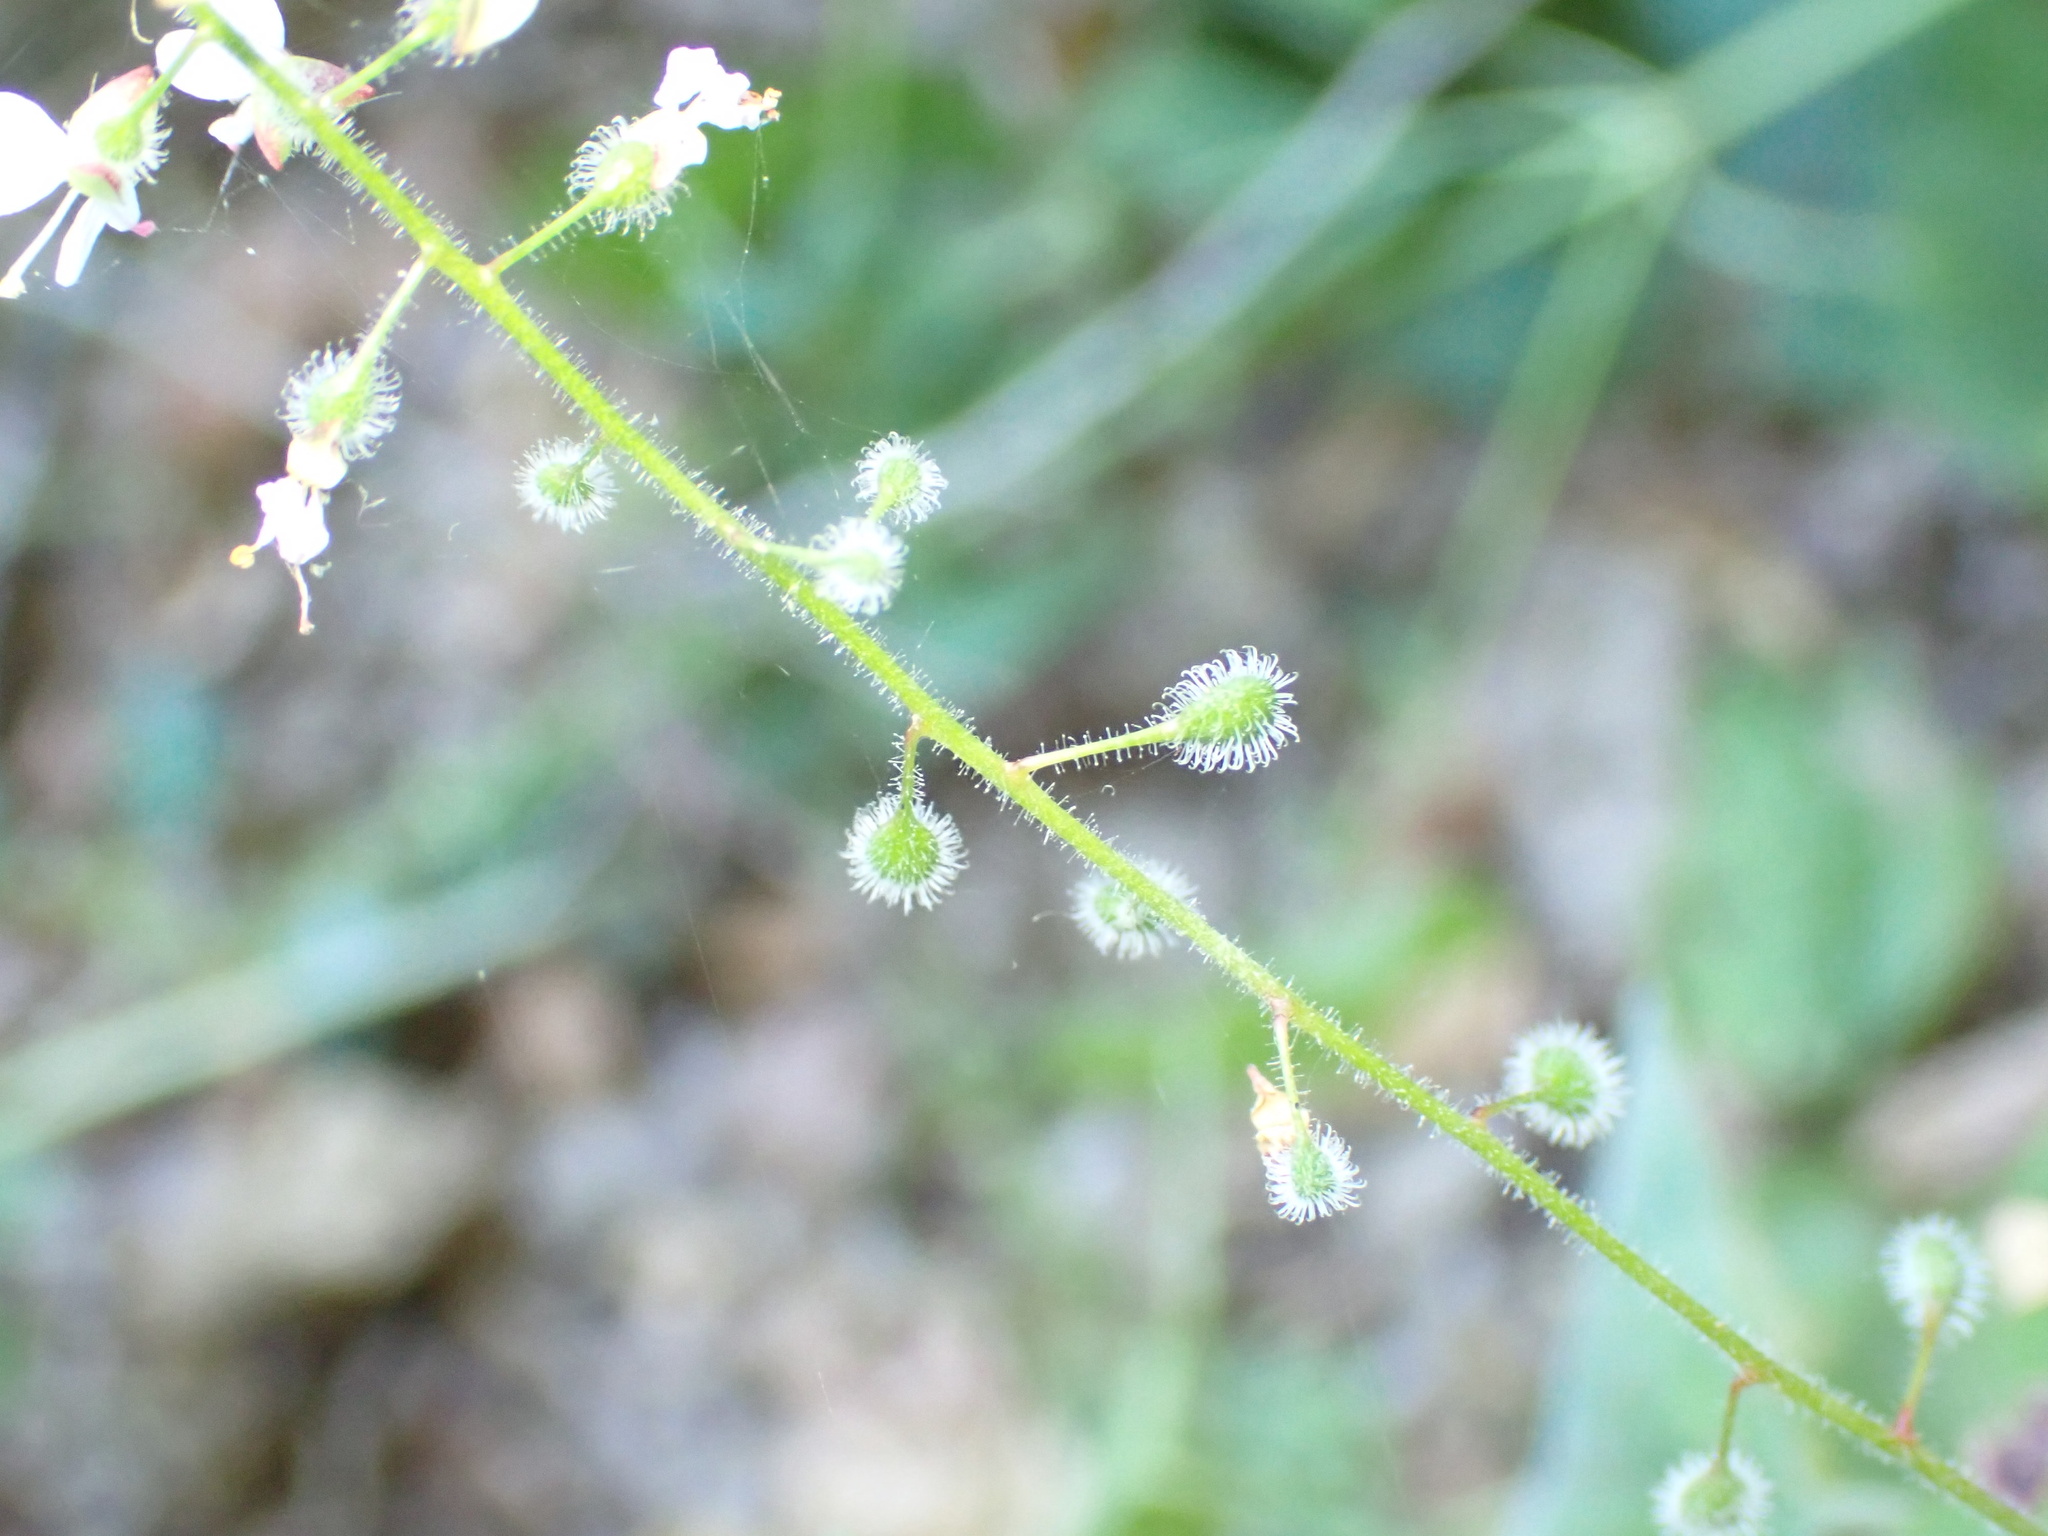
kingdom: Plantae
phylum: Tracheophyta
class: Magnoliopsida
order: Myrtales
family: Onagraceae
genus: Circaea
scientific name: Circaea lutetiana
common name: Enchanter's-nightshade
